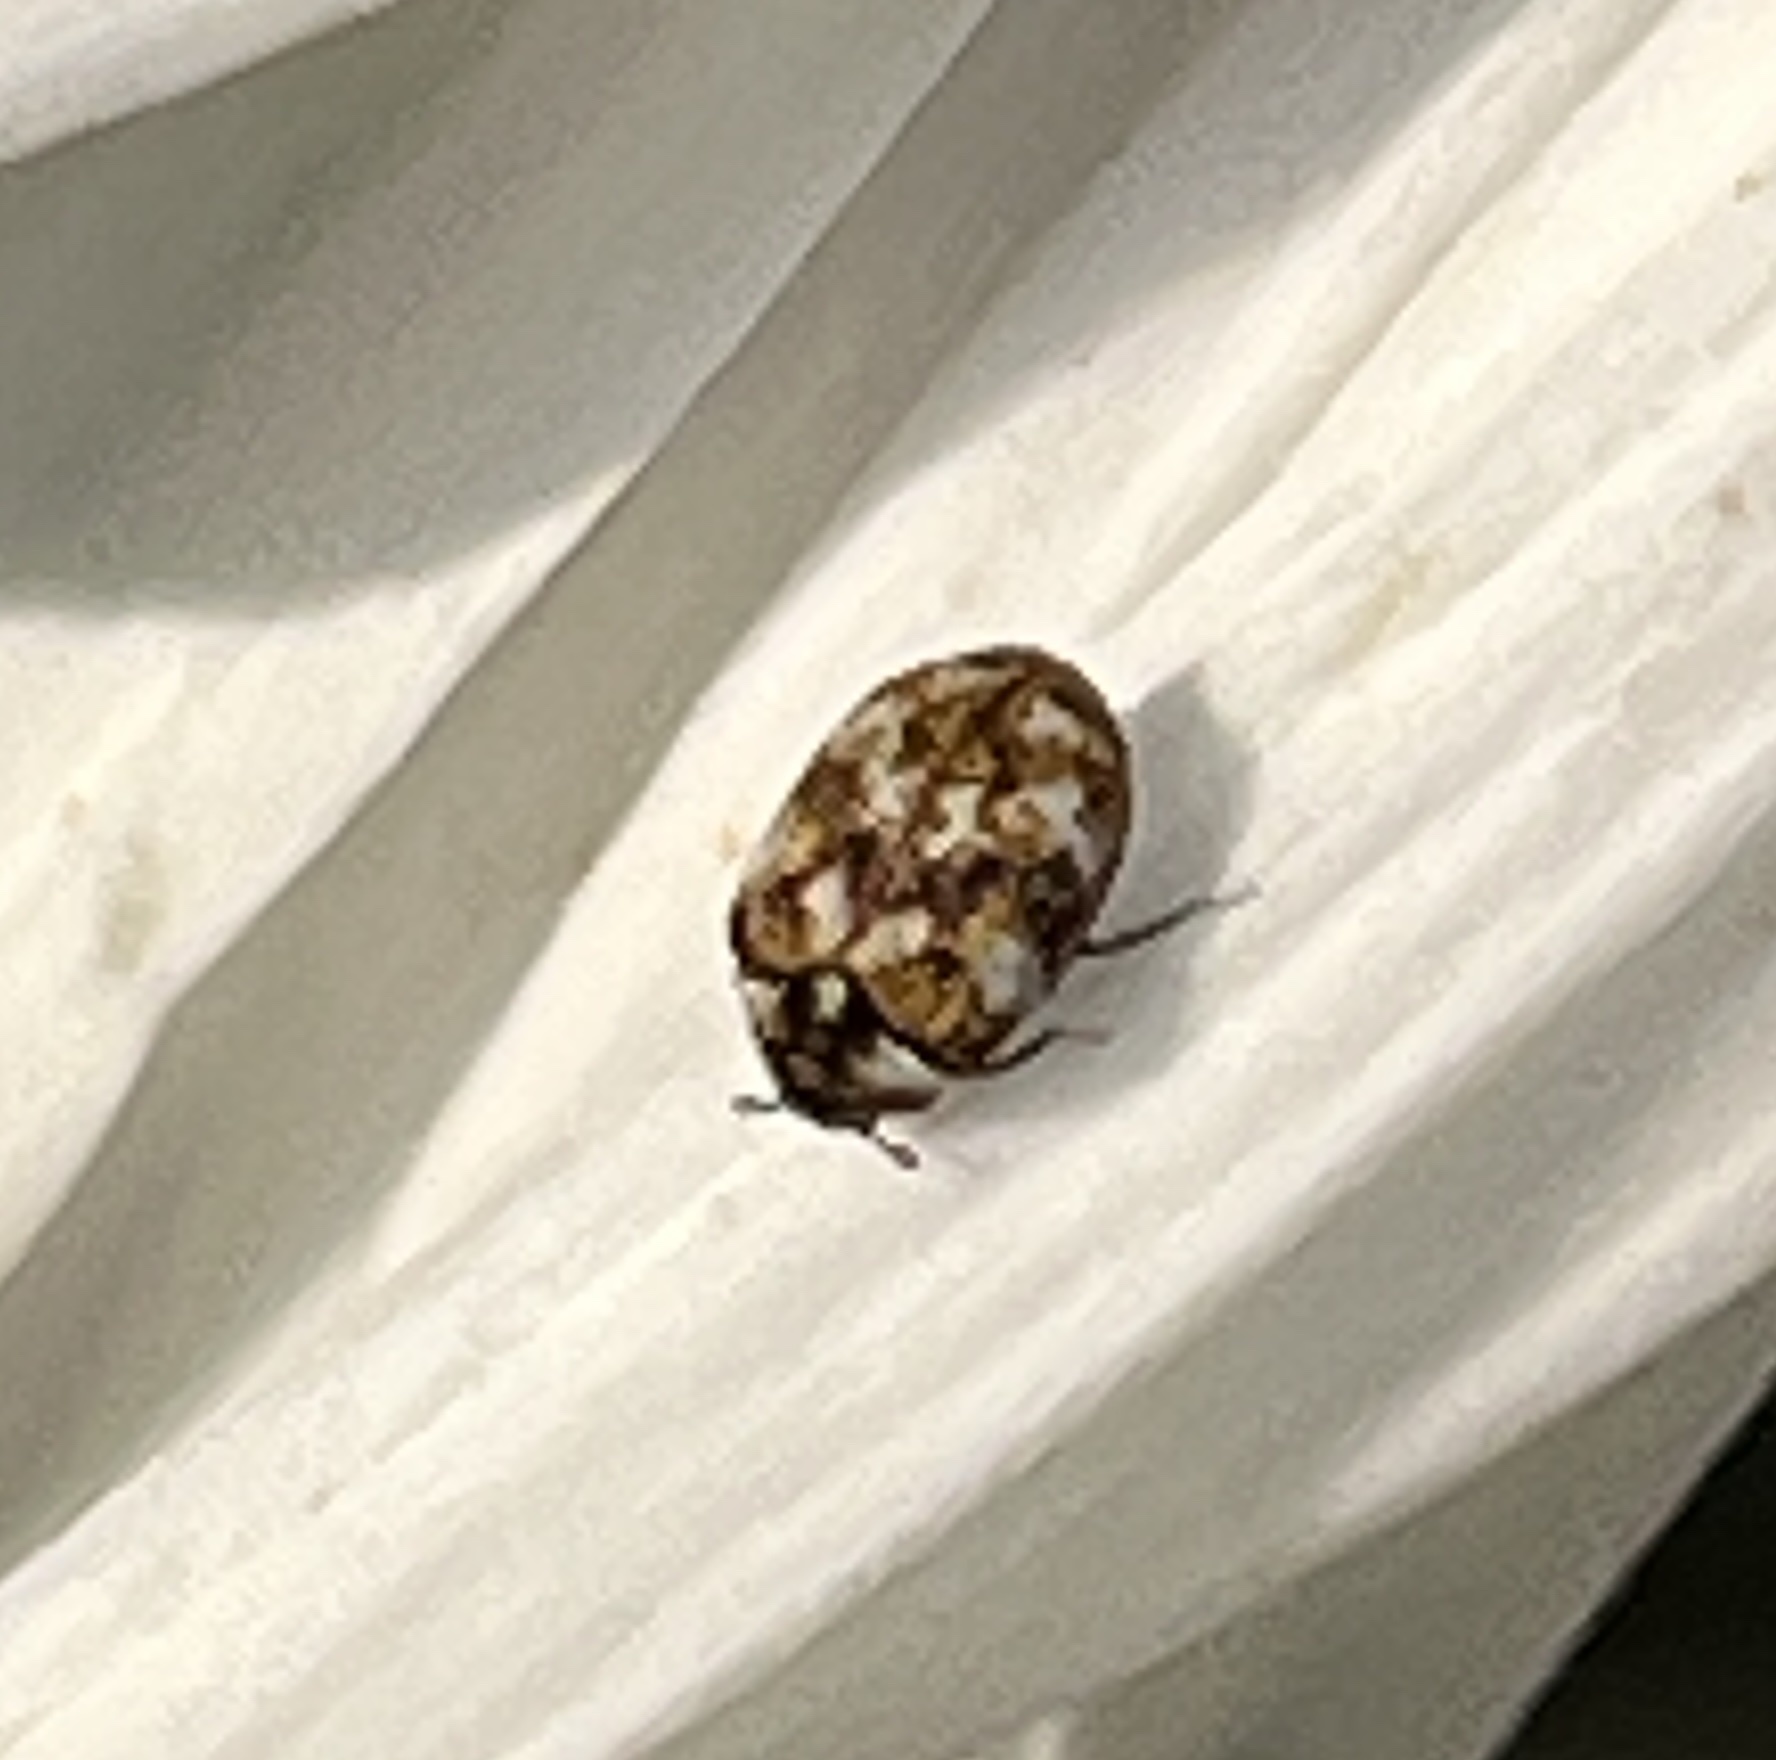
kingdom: Animalia
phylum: Arthropoda
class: Insecta
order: Coleoptera
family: Dermestidae
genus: Anthrenus
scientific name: Anthrenus verbasci
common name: Varied carpet beetle
